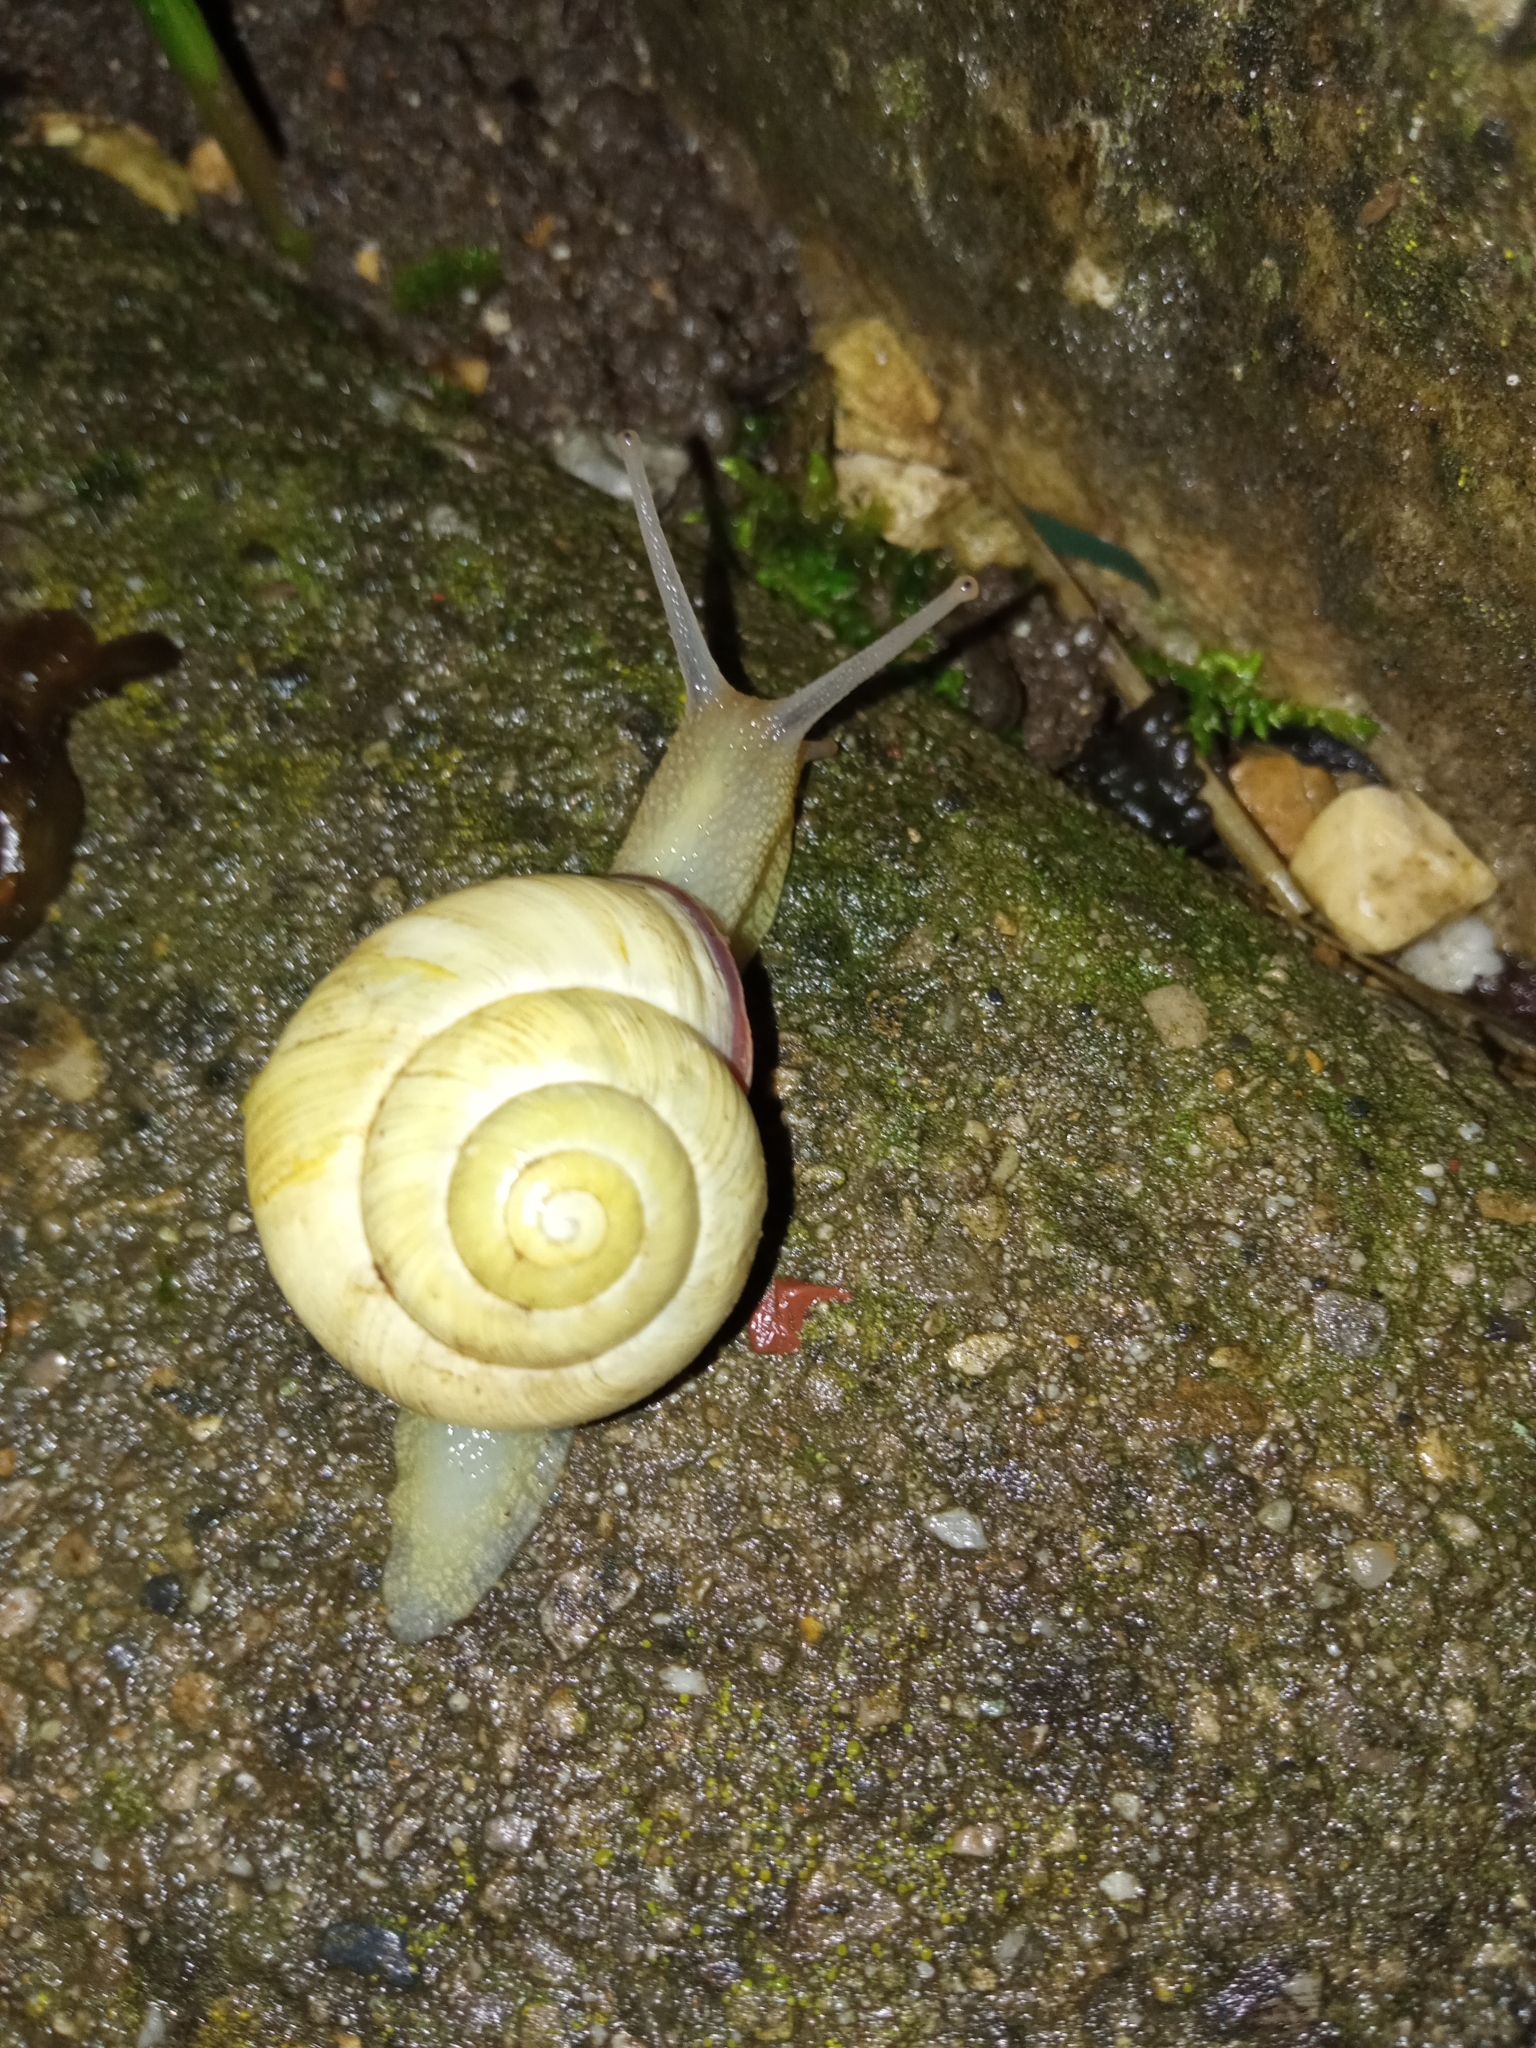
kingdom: Animalia
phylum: Mollusca
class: Gastropoda
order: Stylommatophora
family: Helicidae
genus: Cepaea
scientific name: Cepaea nemoralis
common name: Grovesnail
